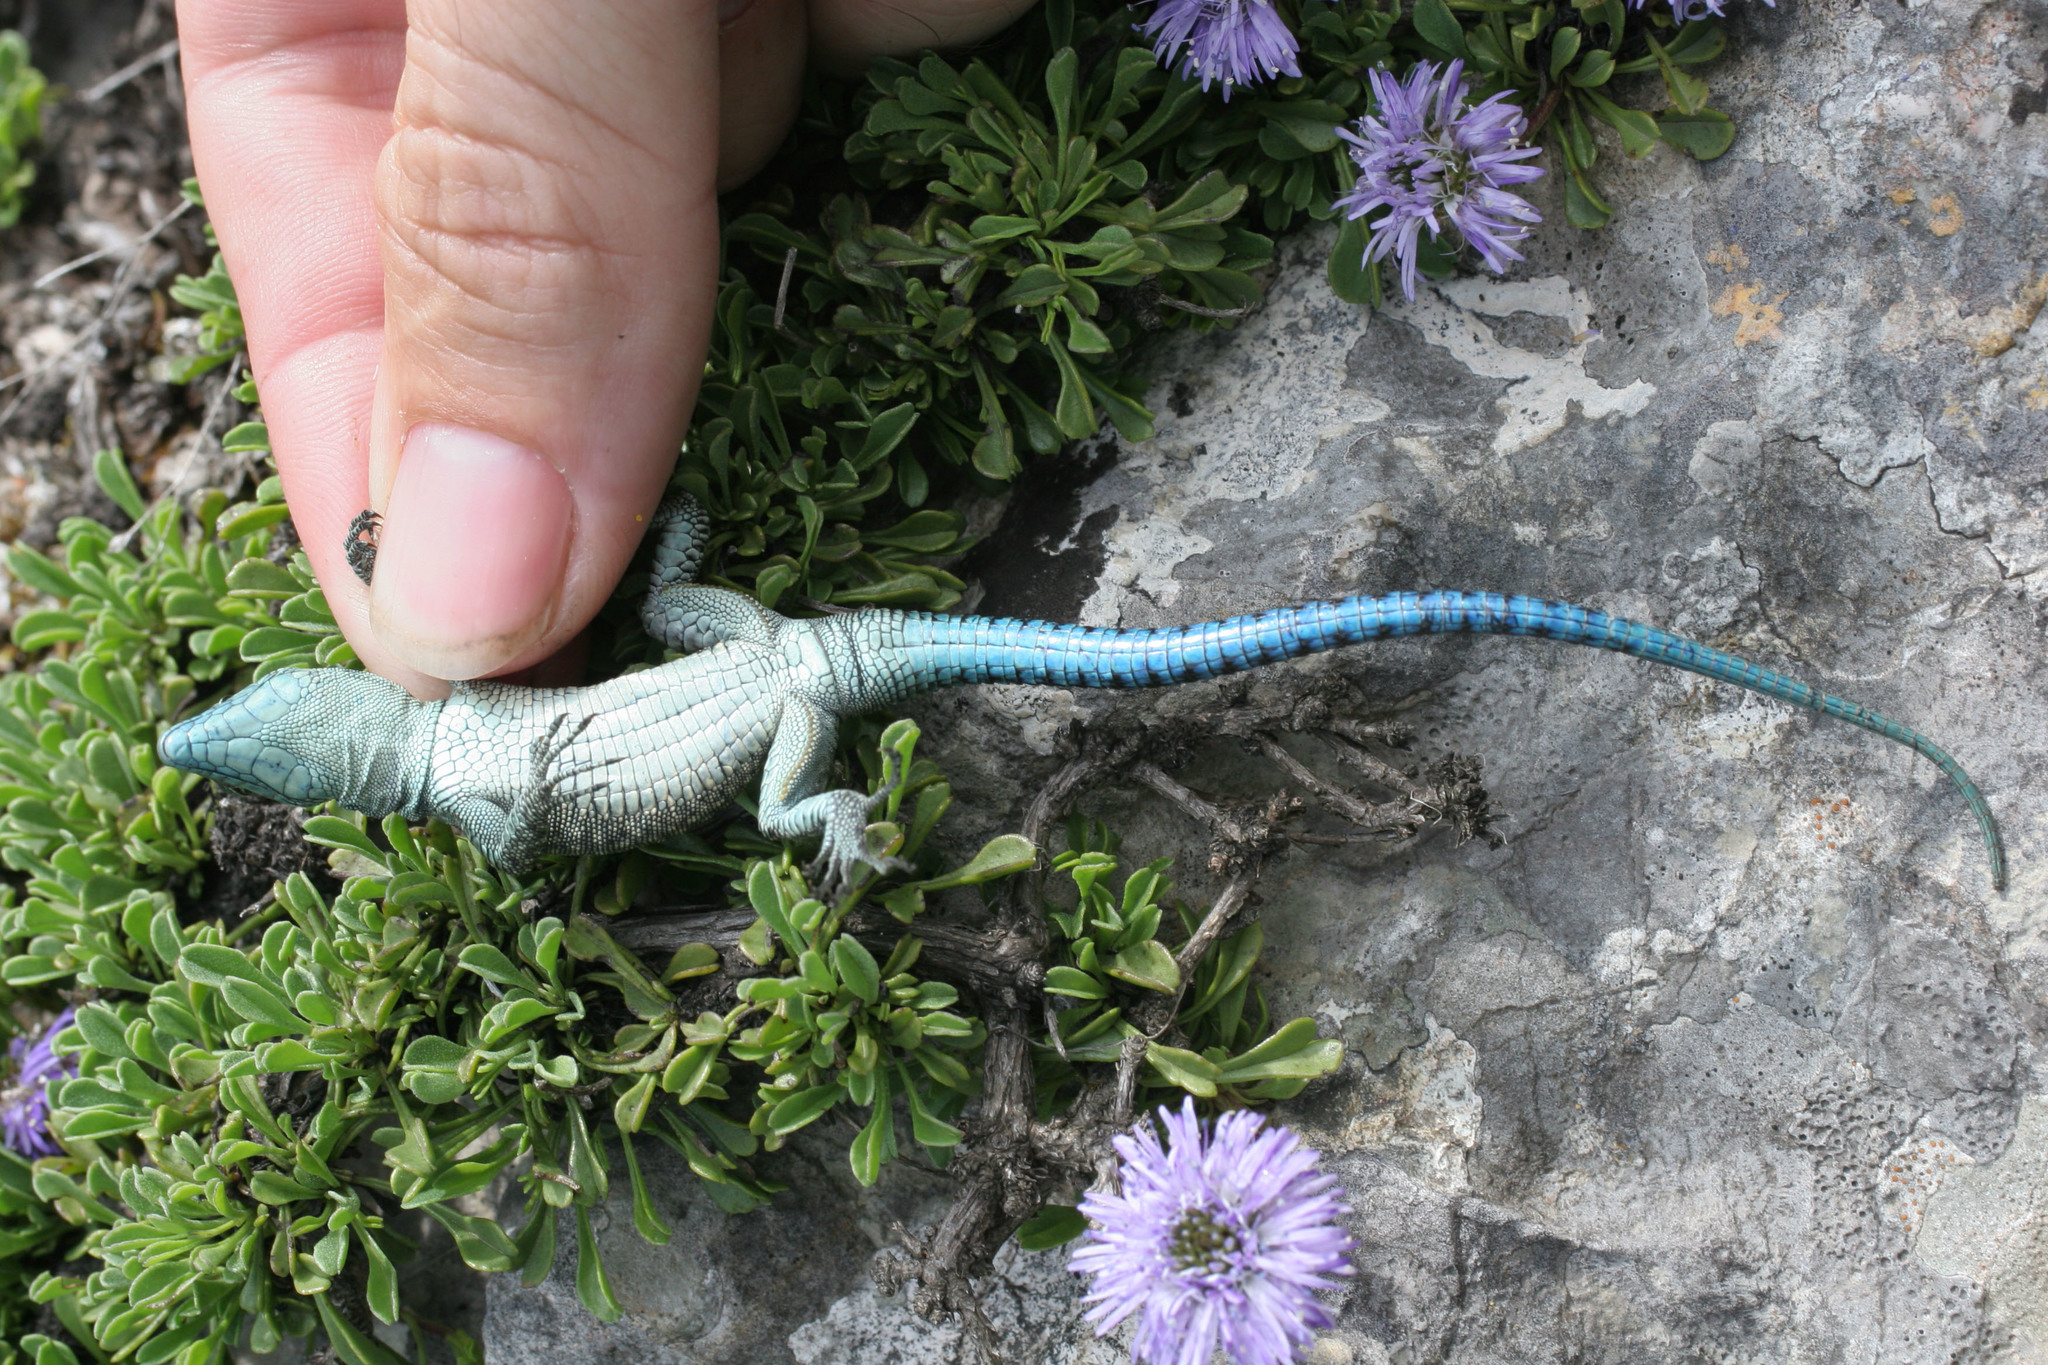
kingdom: Animalia
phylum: Chordata
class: Squamata
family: Lacertidae
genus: Dalmatolacerta
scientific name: Dalmatolacerta oxycephala
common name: Sharp-snouted rock lizard
